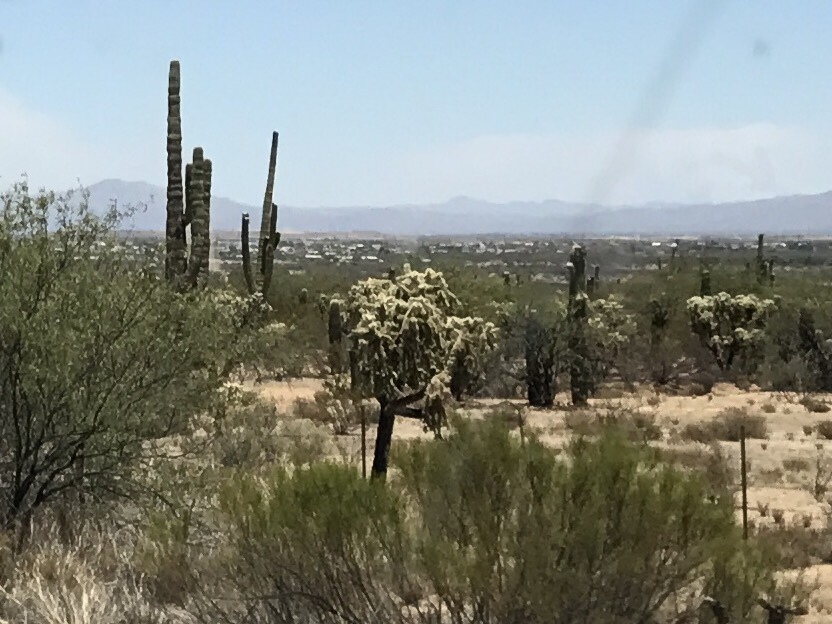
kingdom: Plantae
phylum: Tracheophyta
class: Magnoliopsida
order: Caryophyllales
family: Cactaceae
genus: Cylindropuntia
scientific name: Cylindropuntia fulgida
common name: Jumping cholla
